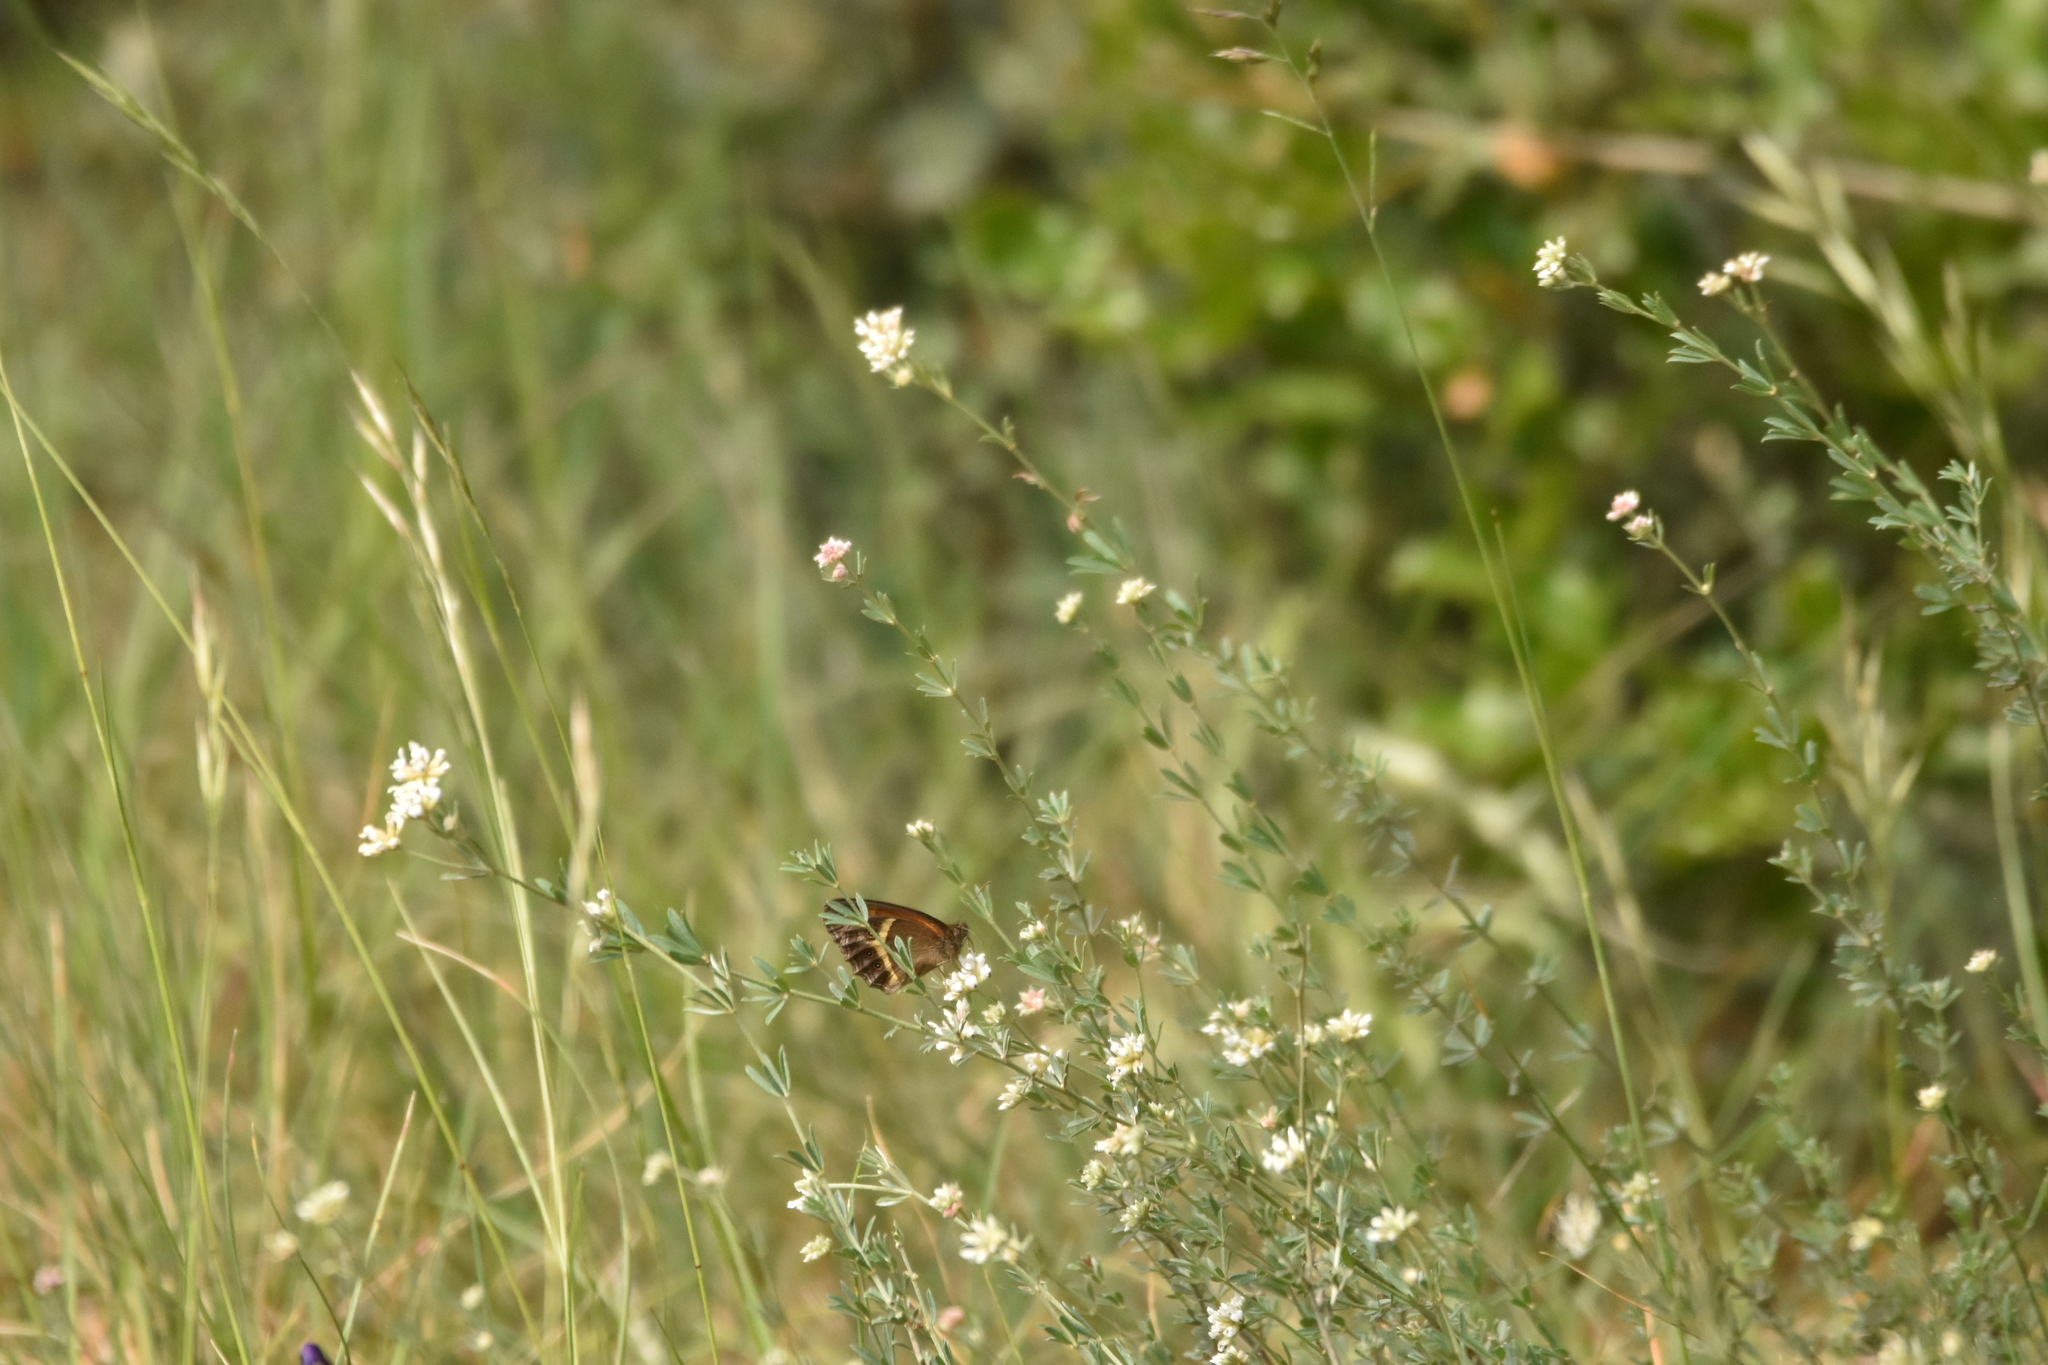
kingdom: Animalia
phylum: Arthropoda
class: Insecta
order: Lepidoptera
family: Nymphalidae
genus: Pyronia
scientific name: Pyronia bathseba
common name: Spanish gatekeeper
